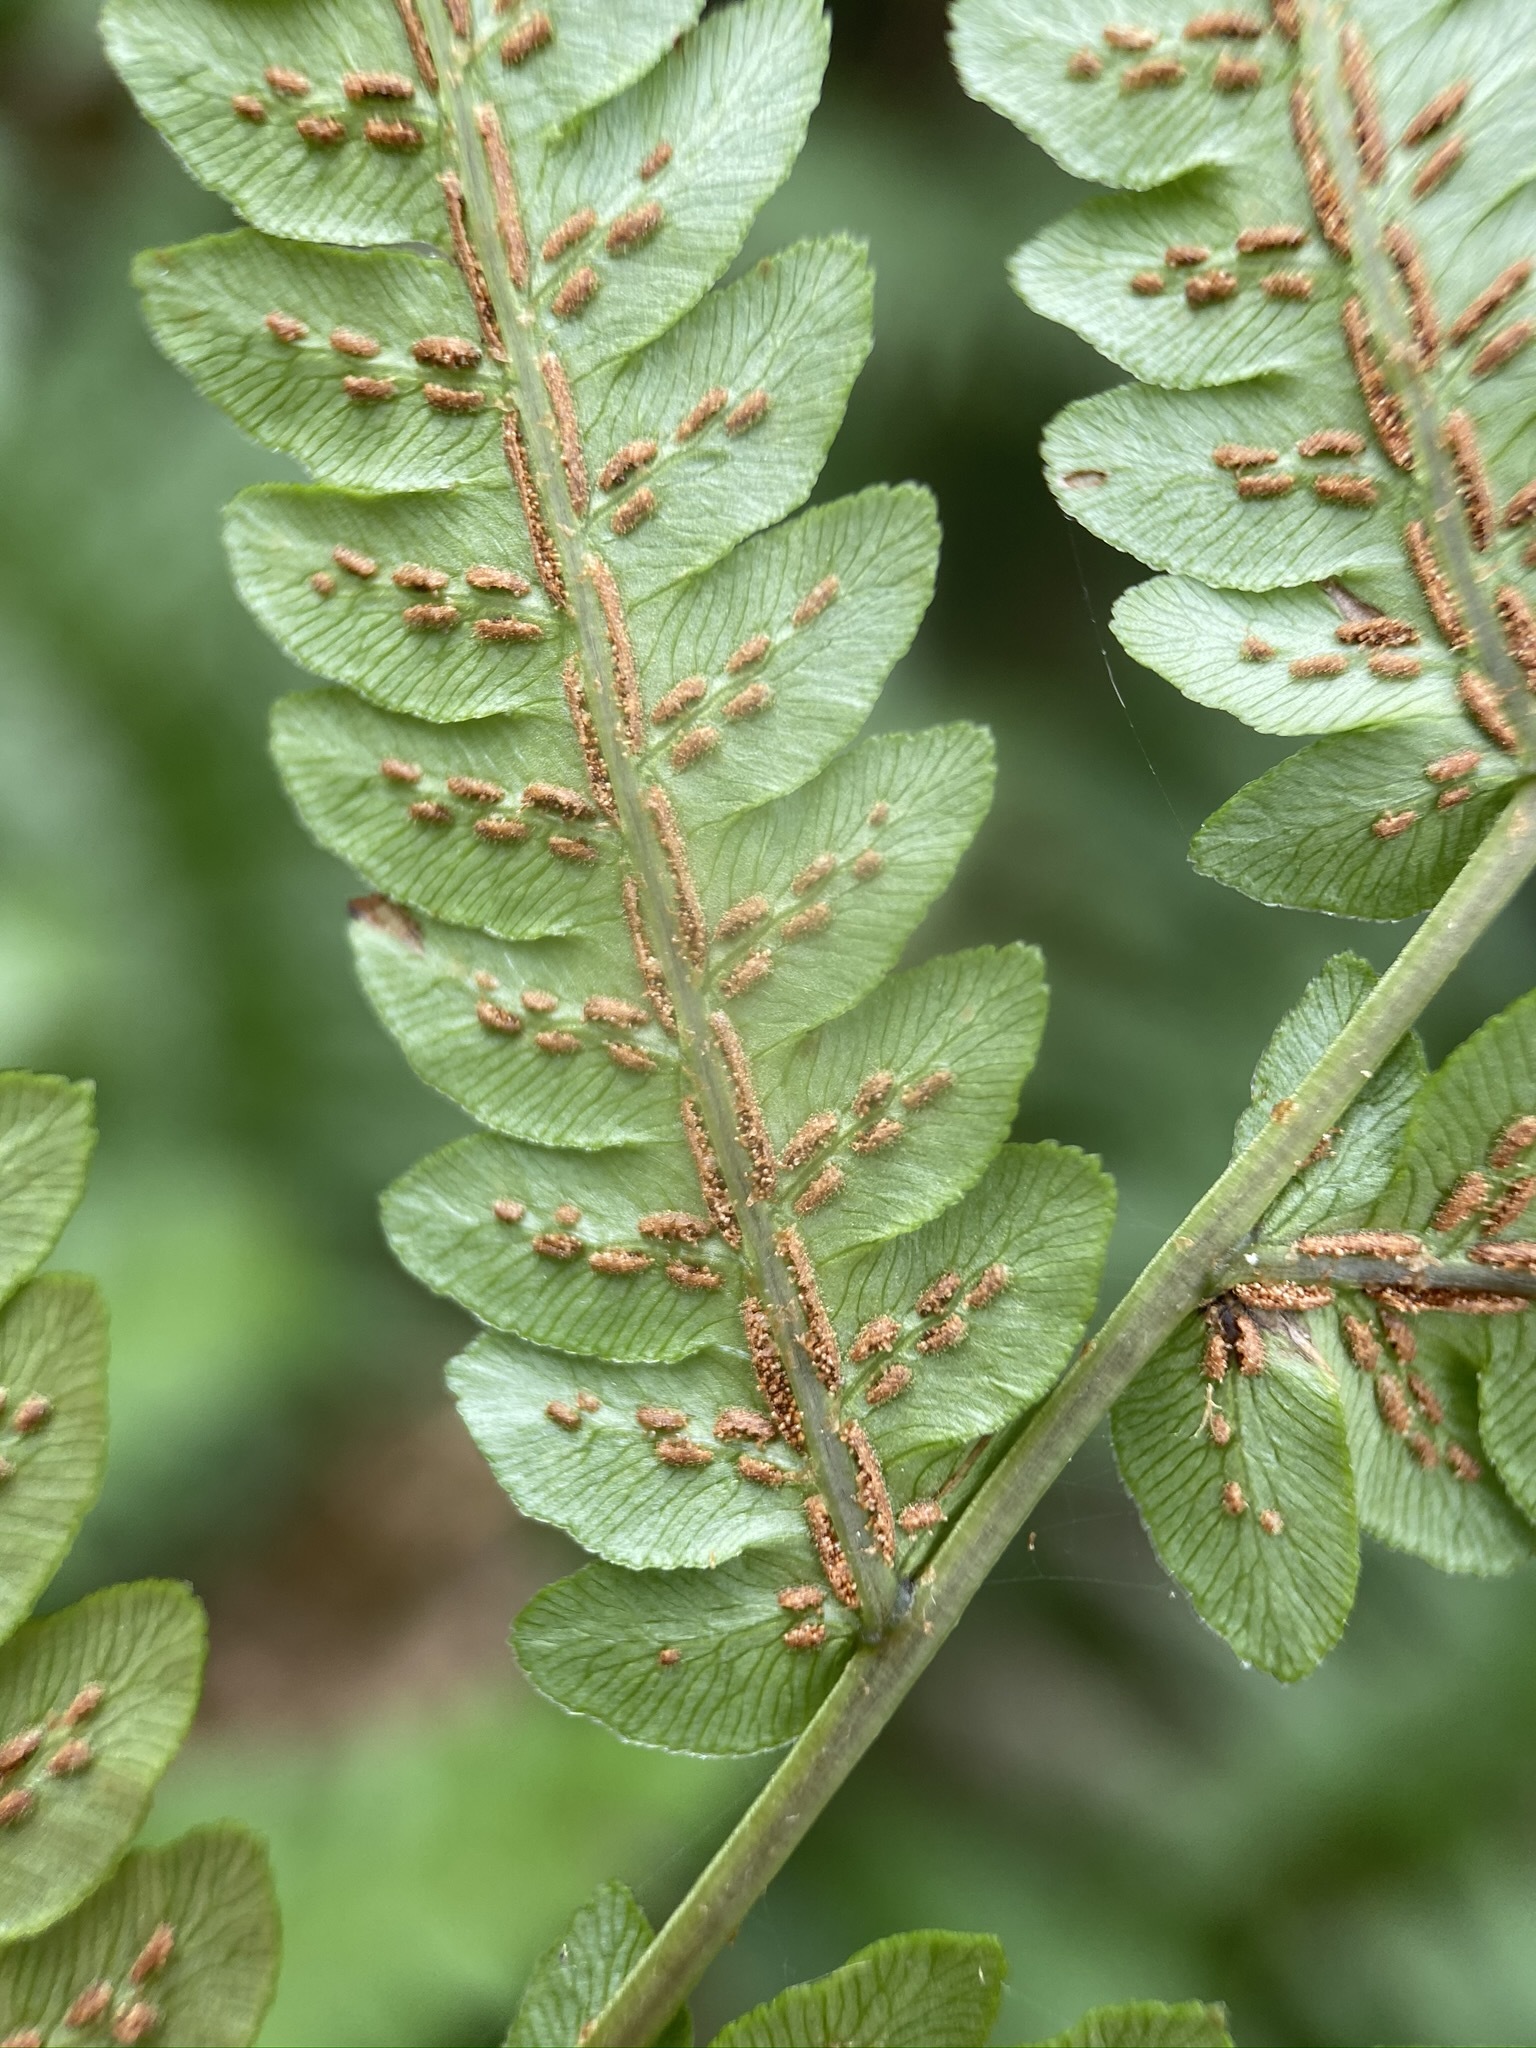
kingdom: Plantae
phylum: Tracheophyta
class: Polypodiopsida
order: Polypodiales
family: Blechnaceae
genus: Anchistea
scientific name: Anchistea virginica
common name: Virginia chain fern
